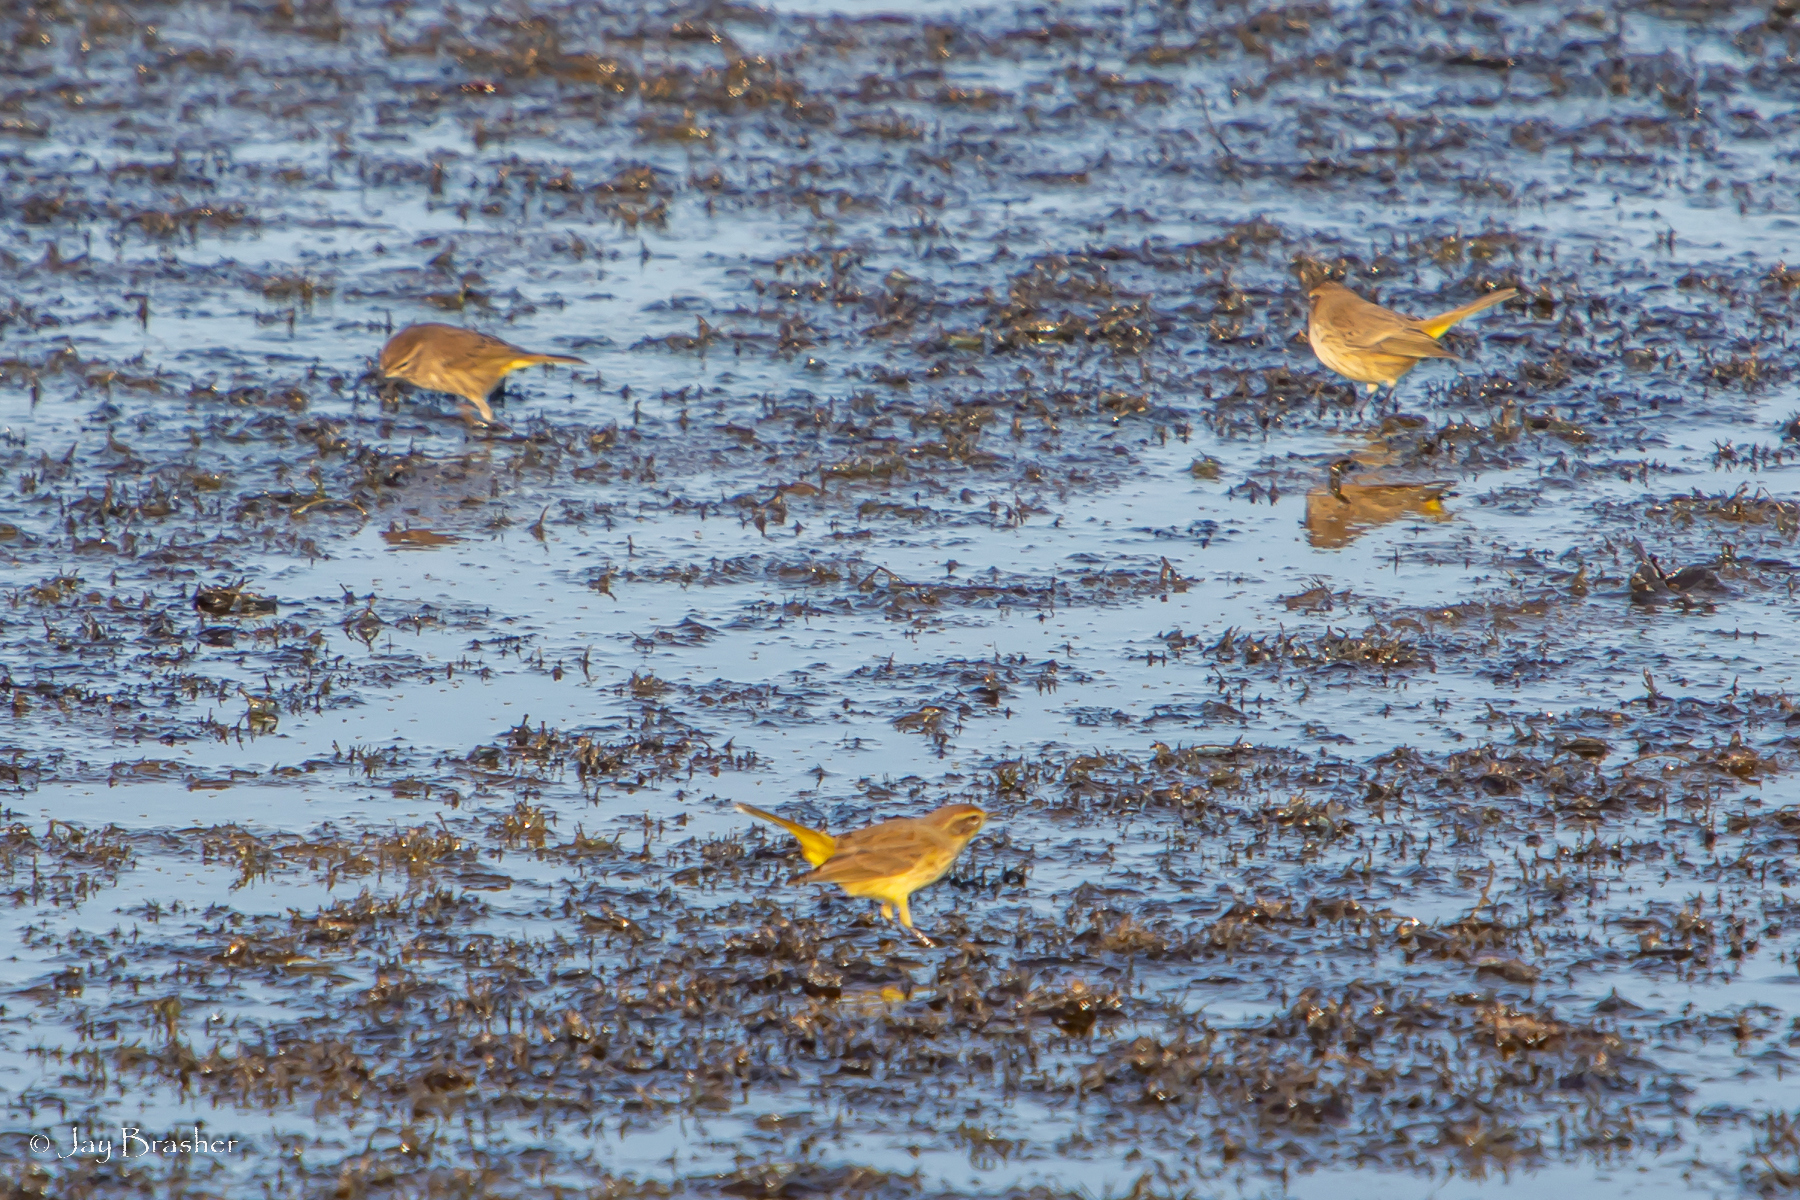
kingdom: Animalia
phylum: Chordata
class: Aves
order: Passeriformes
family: Parulidae
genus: Setophaga
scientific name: Setophaga palmarum
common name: Palm warbler
